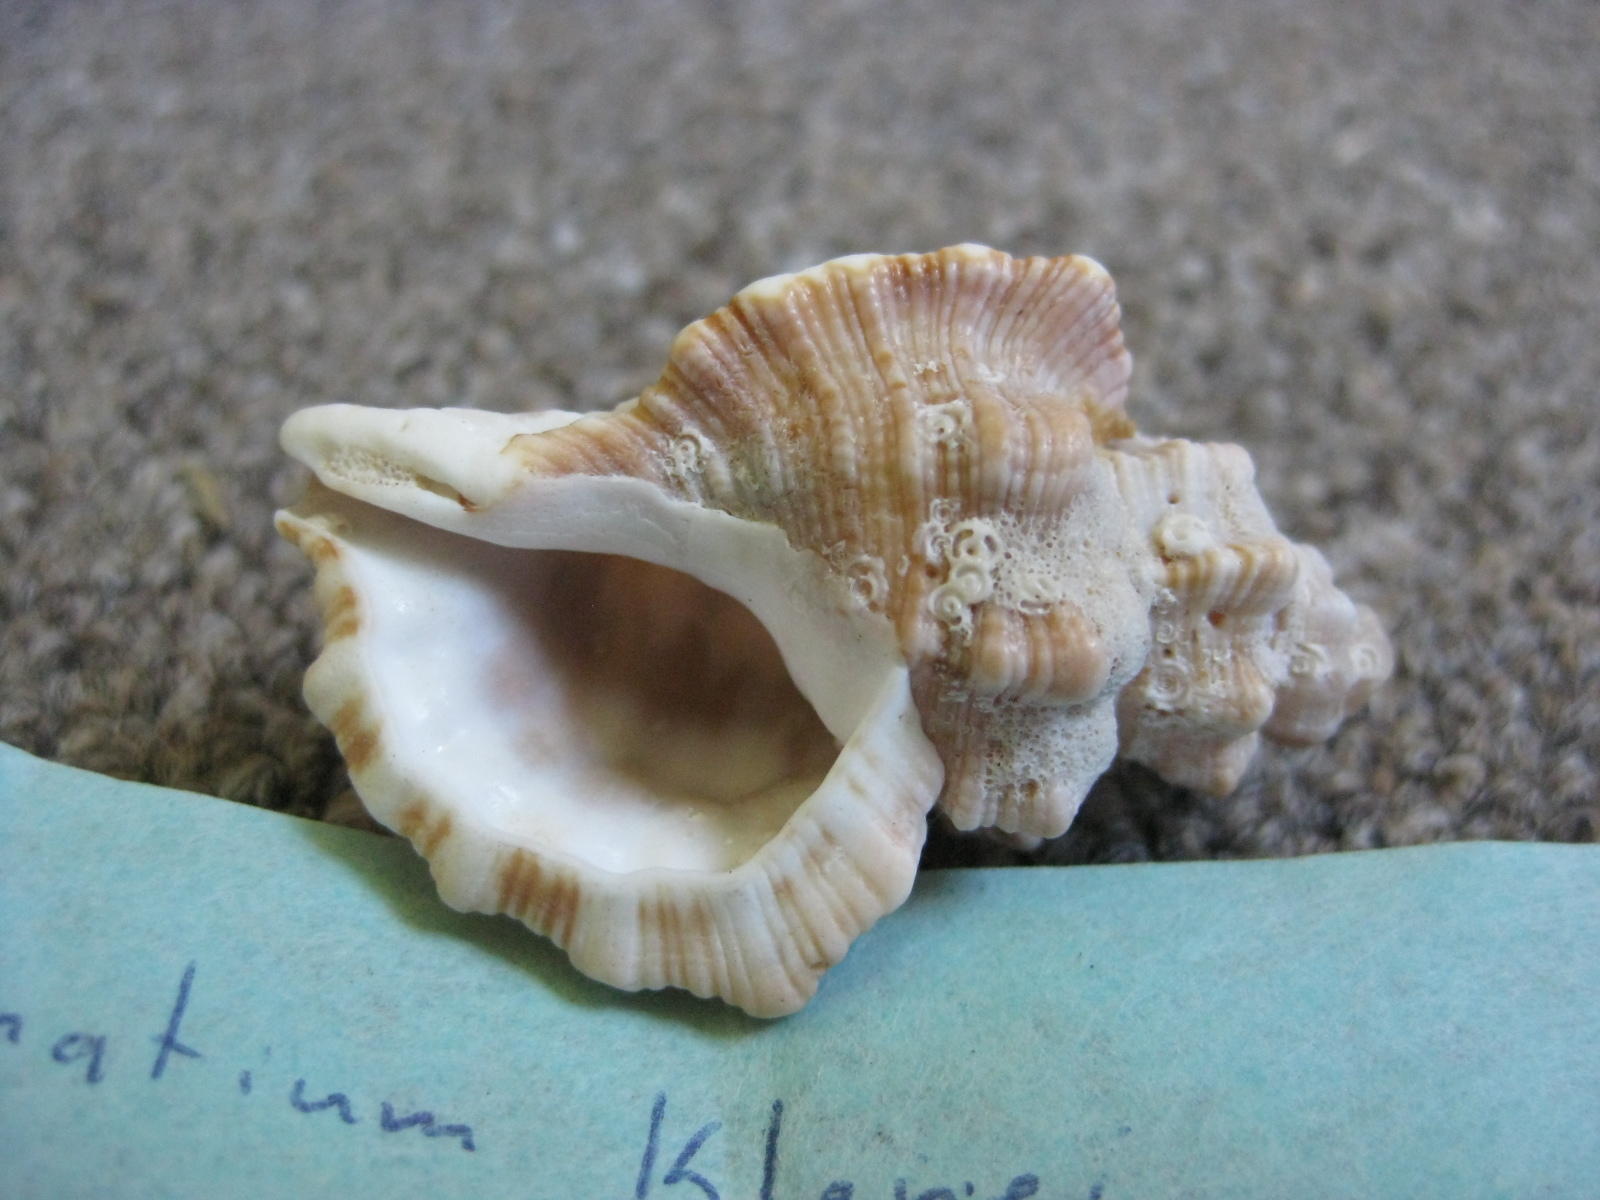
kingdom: Animalia
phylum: Mollusca
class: Gastropoda
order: Littorinimorpha
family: Cymatiidae
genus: Monoplex
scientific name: Monoplex klenei
